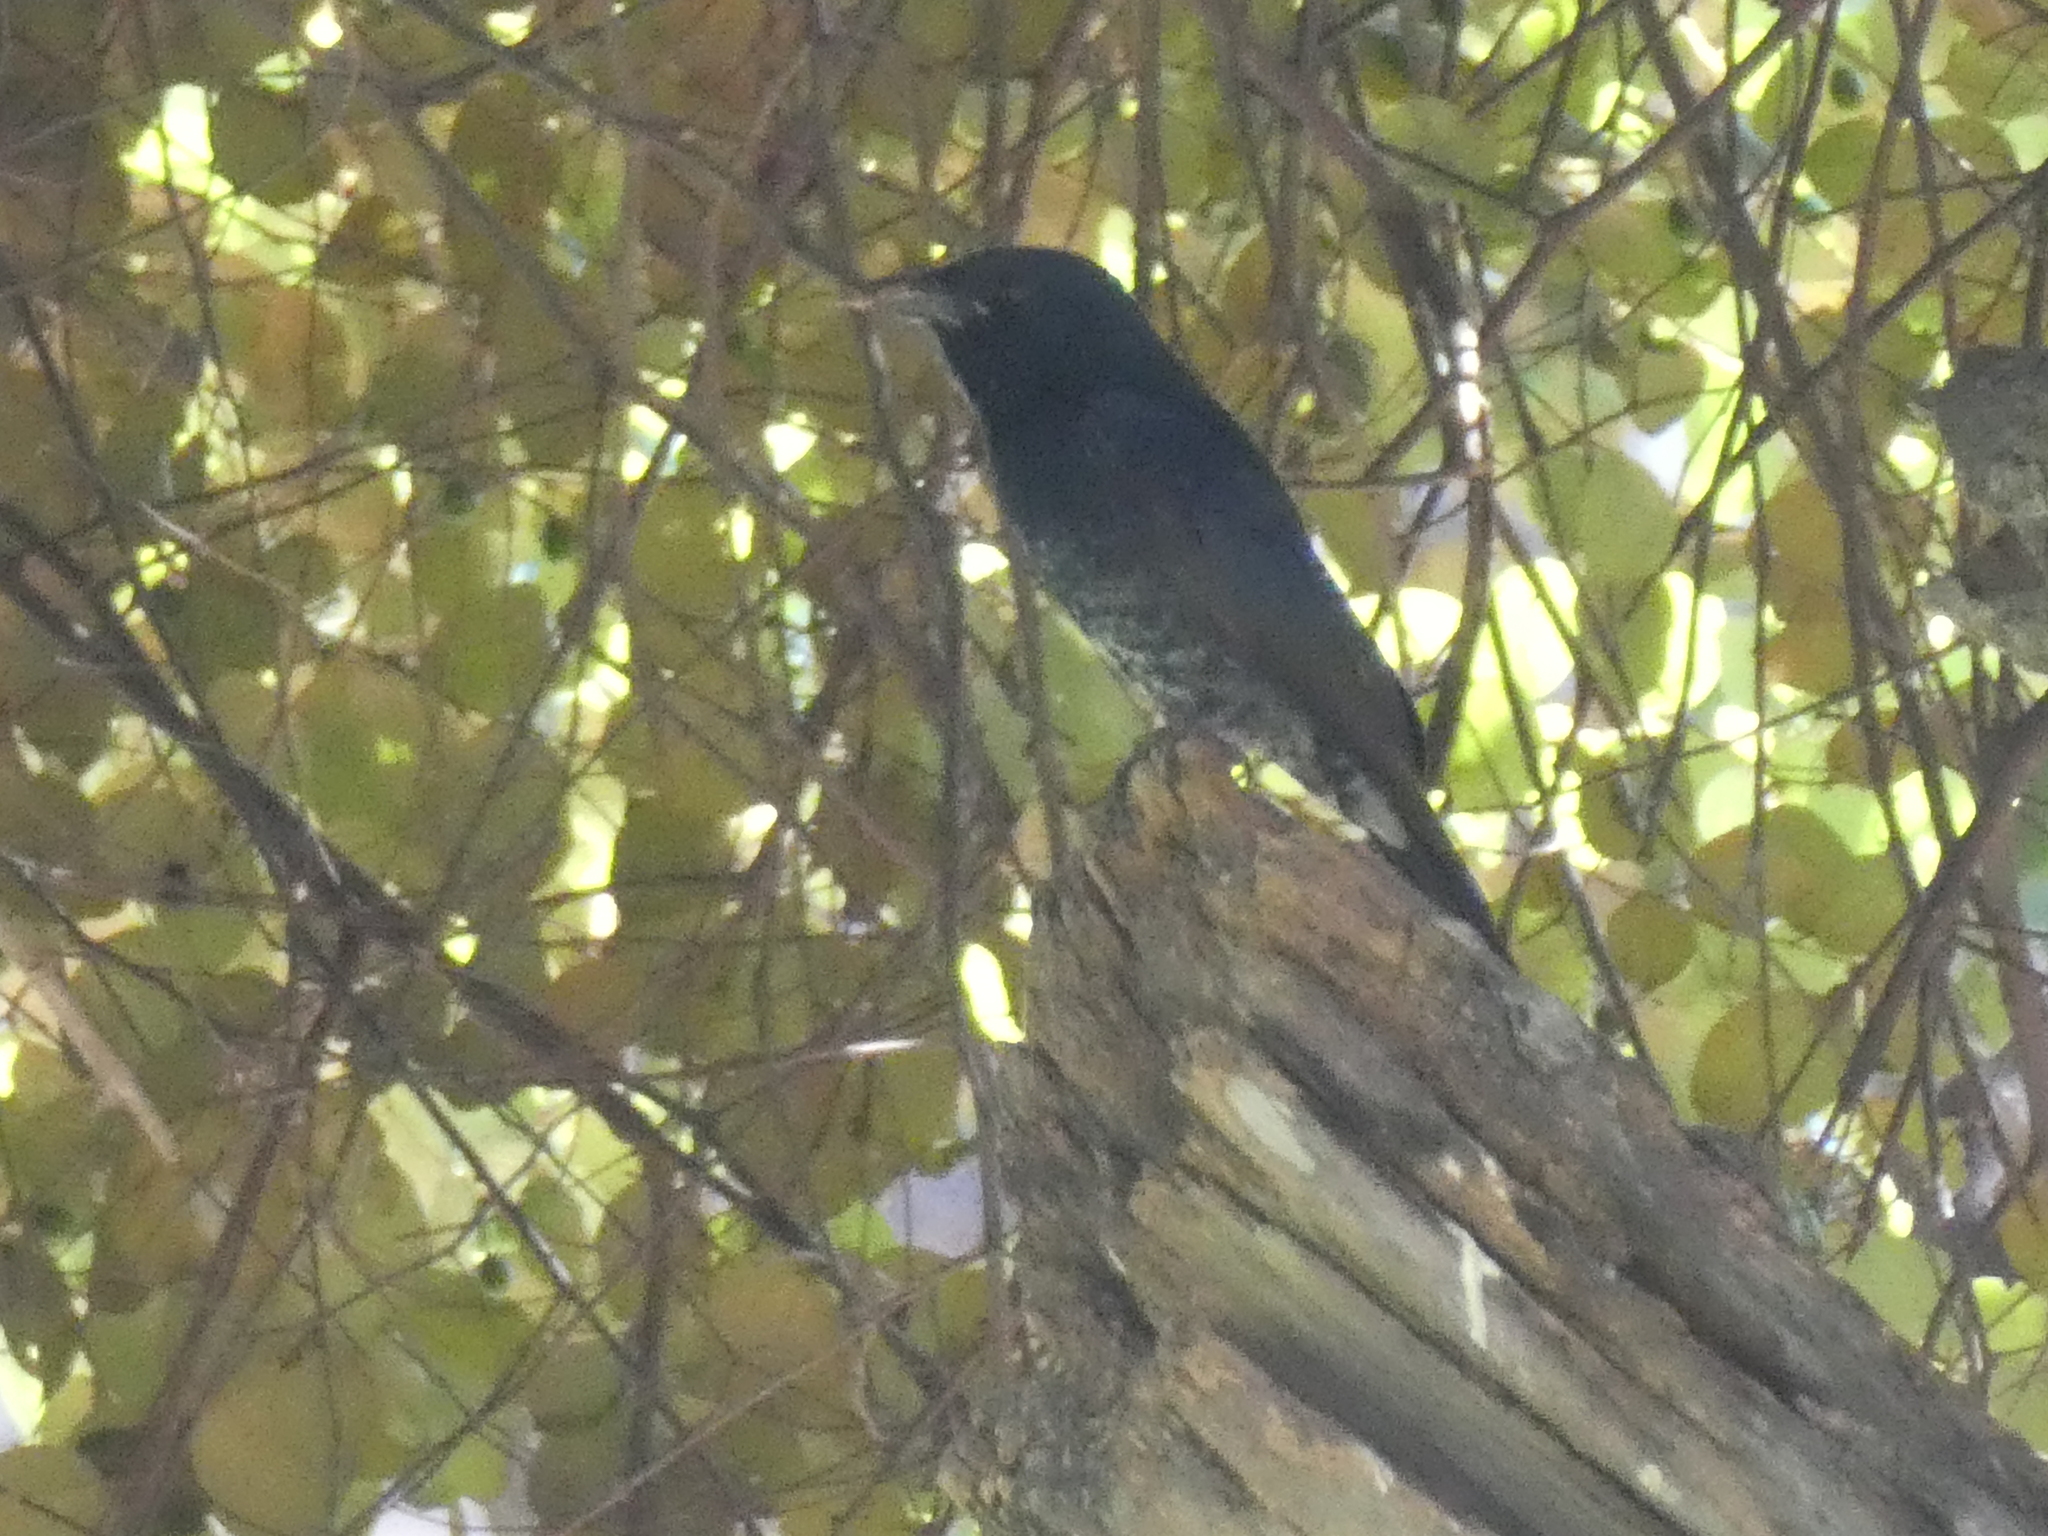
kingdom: Animalia
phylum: Chordata
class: Aves
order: Passeriformes
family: Dicruridae
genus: Dicrurus
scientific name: Dicrurus macrocercus
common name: Black drongo
